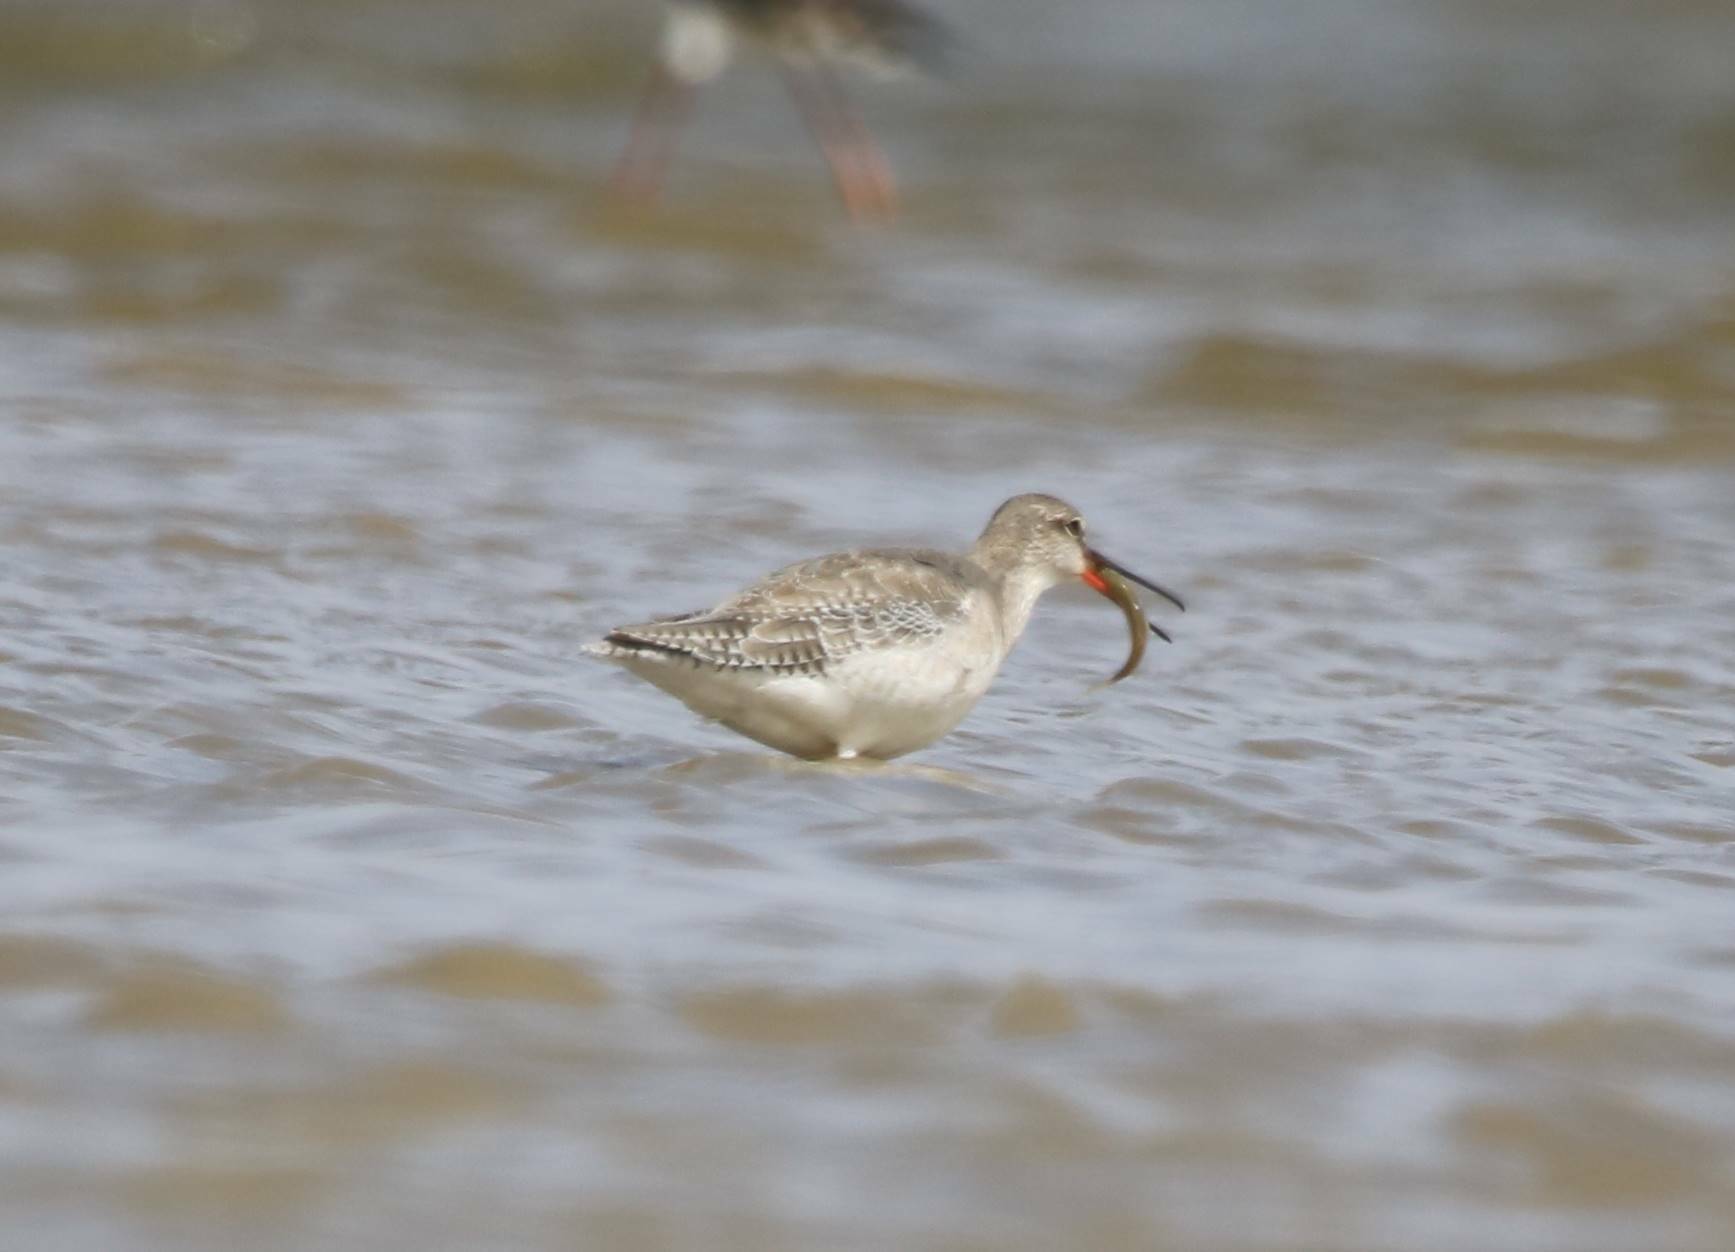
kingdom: Animalia
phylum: Chordata
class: Aves
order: Charadriiformes
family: Scolopacidae
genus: Tringa
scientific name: Tringa erythropus
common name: Spotted redshank
